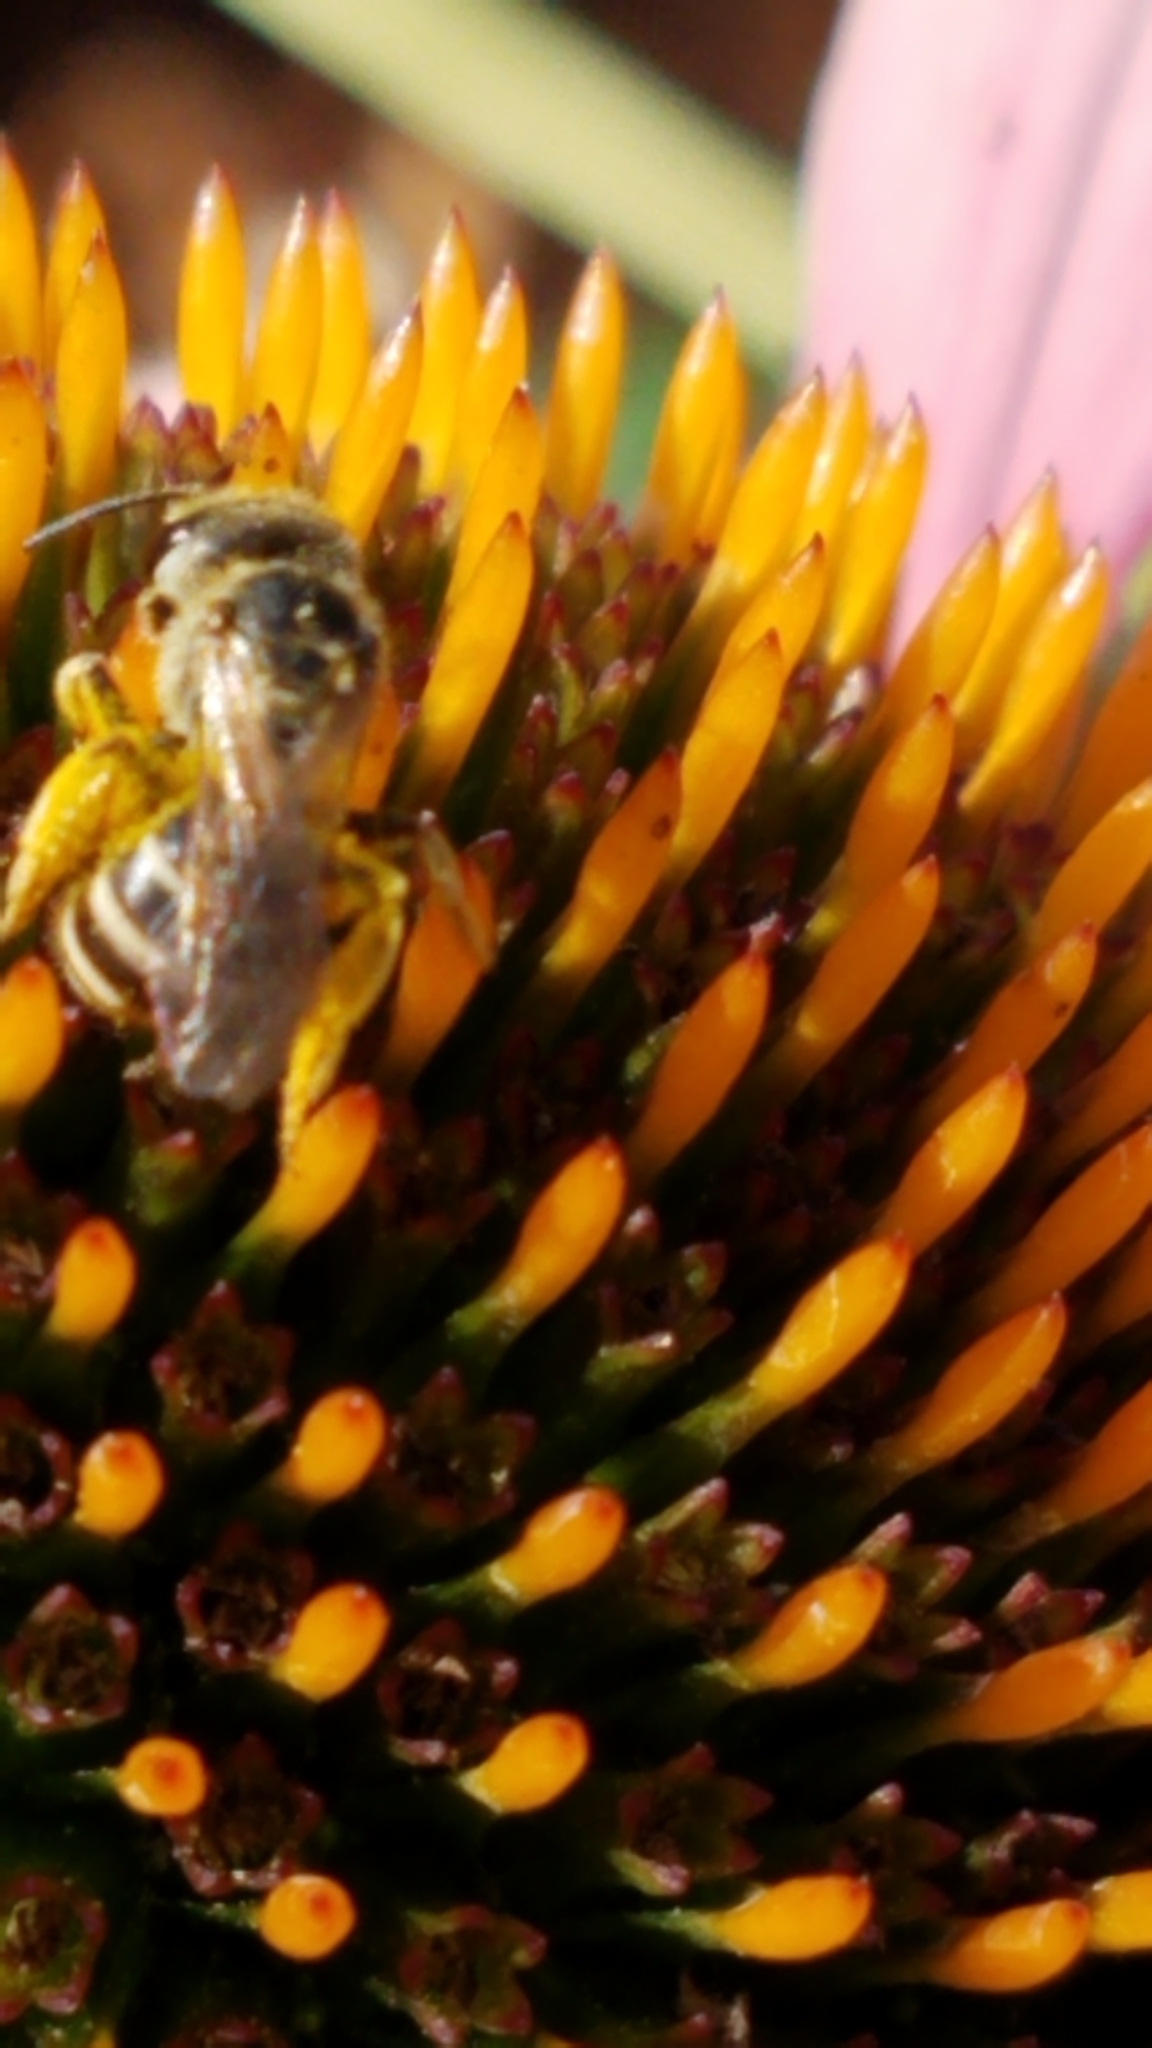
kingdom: Animalia
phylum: Arthropoda
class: Insecta
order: Hymenoptera
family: Halictidae
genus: Halictus
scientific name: Halictus ligatus
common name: Ligated furrow bee
